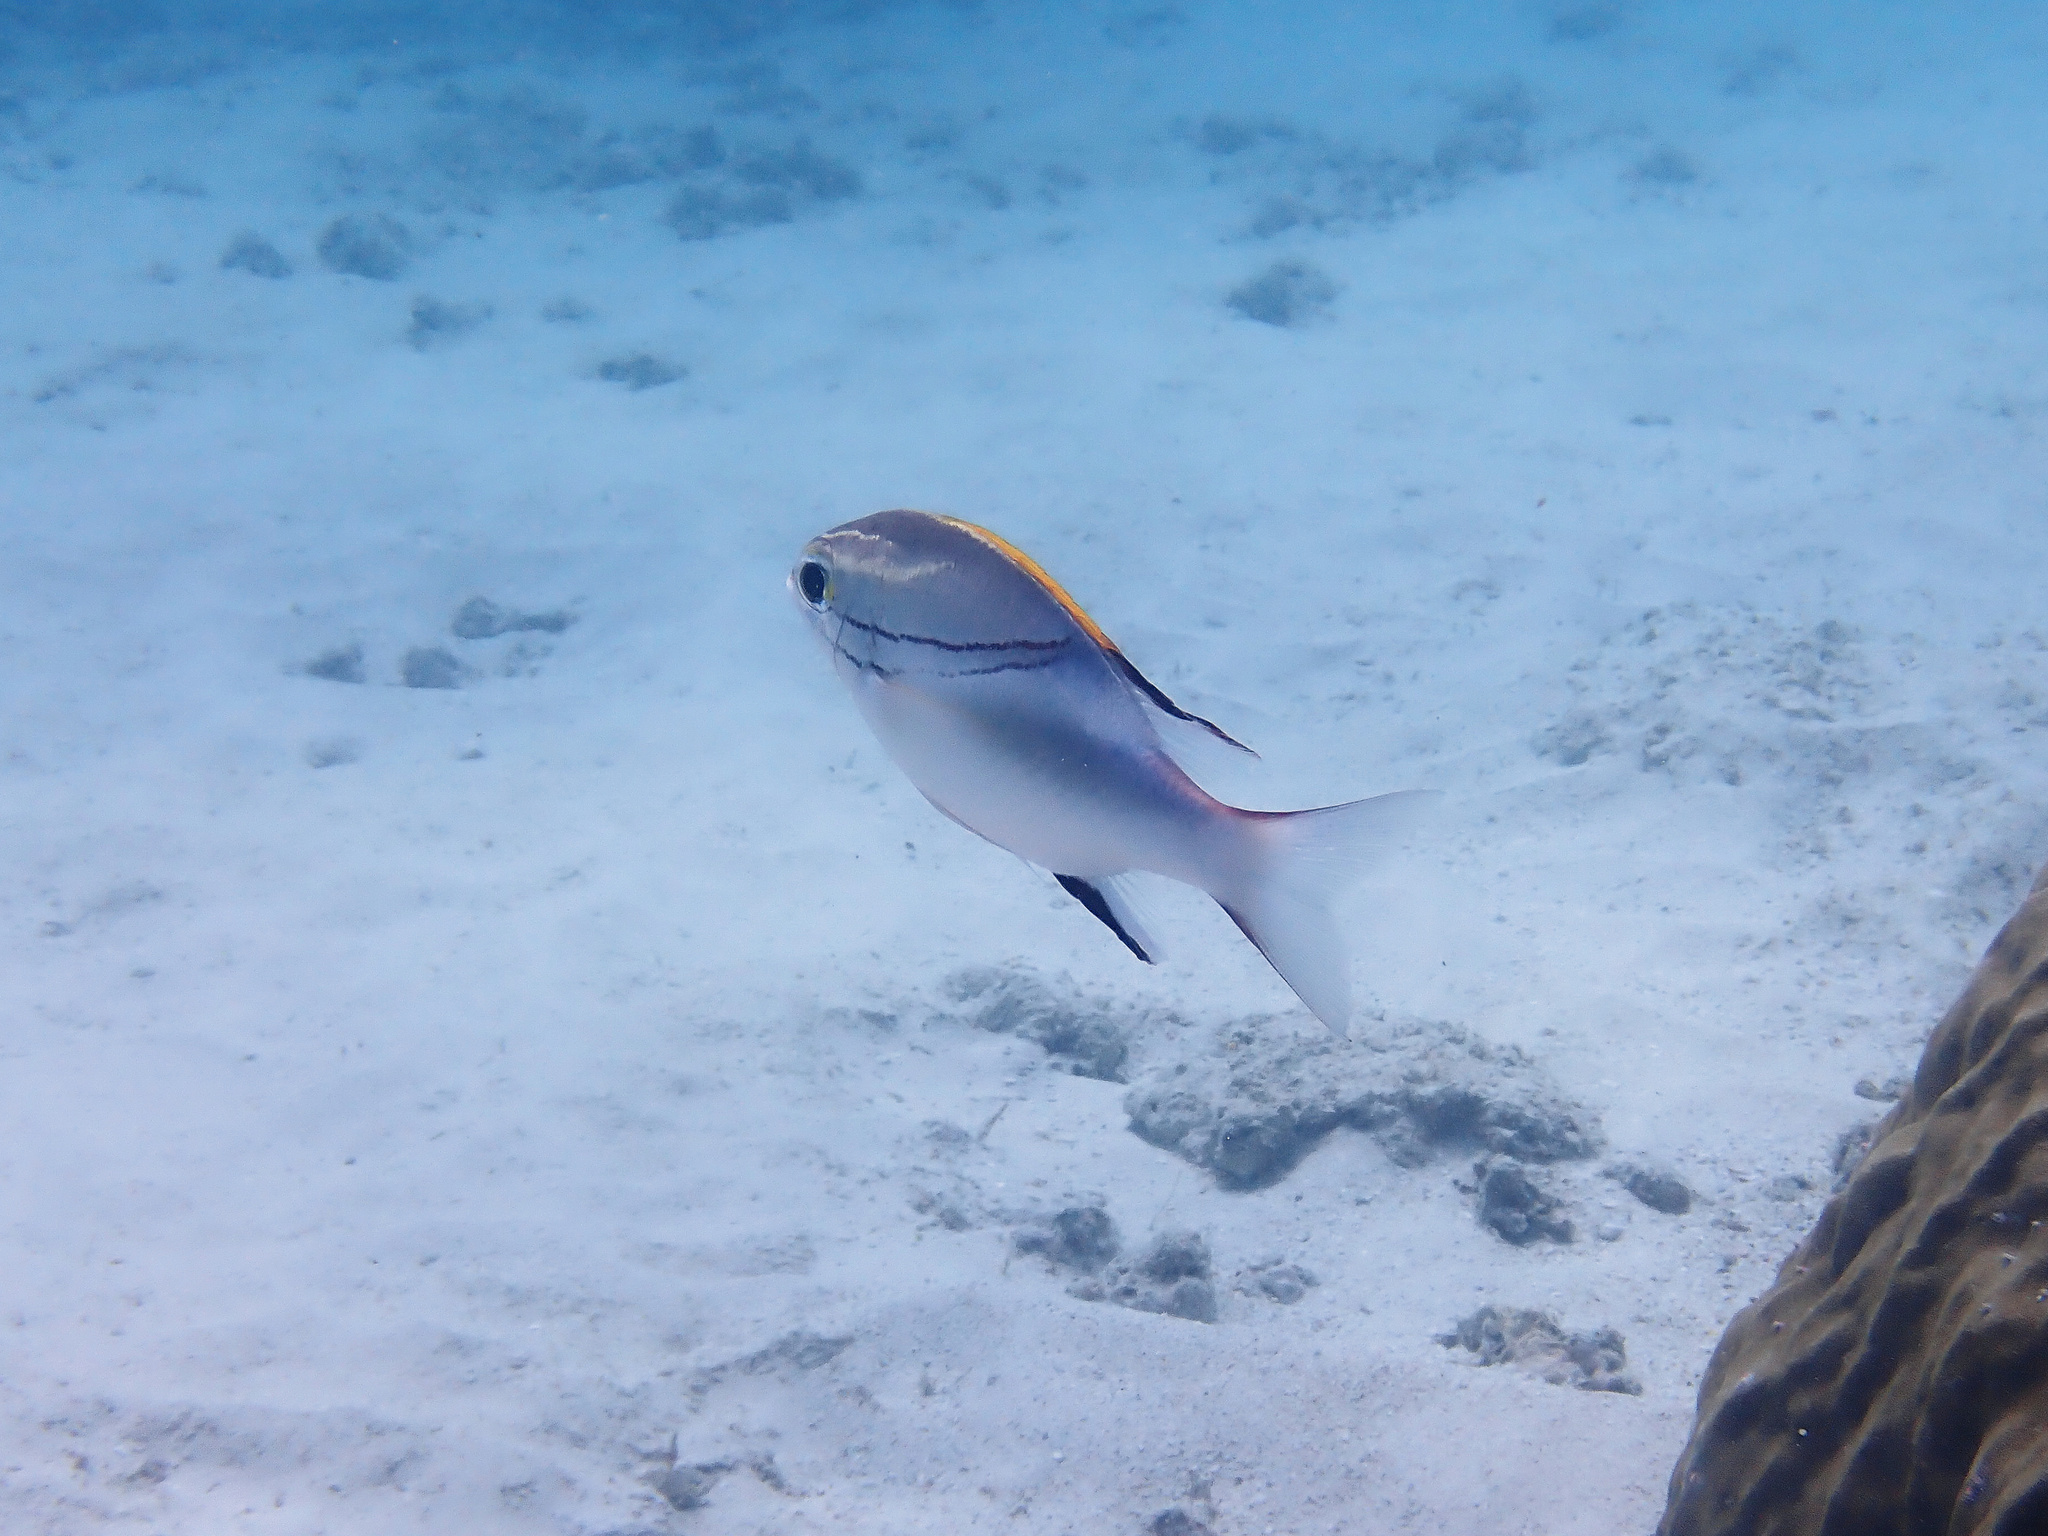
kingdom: Animalia
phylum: Chordata
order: Perciformes
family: Nemipteridae
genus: Scolopsis
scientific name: Scolopsis bilineata
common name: Two-lined monocle bream
